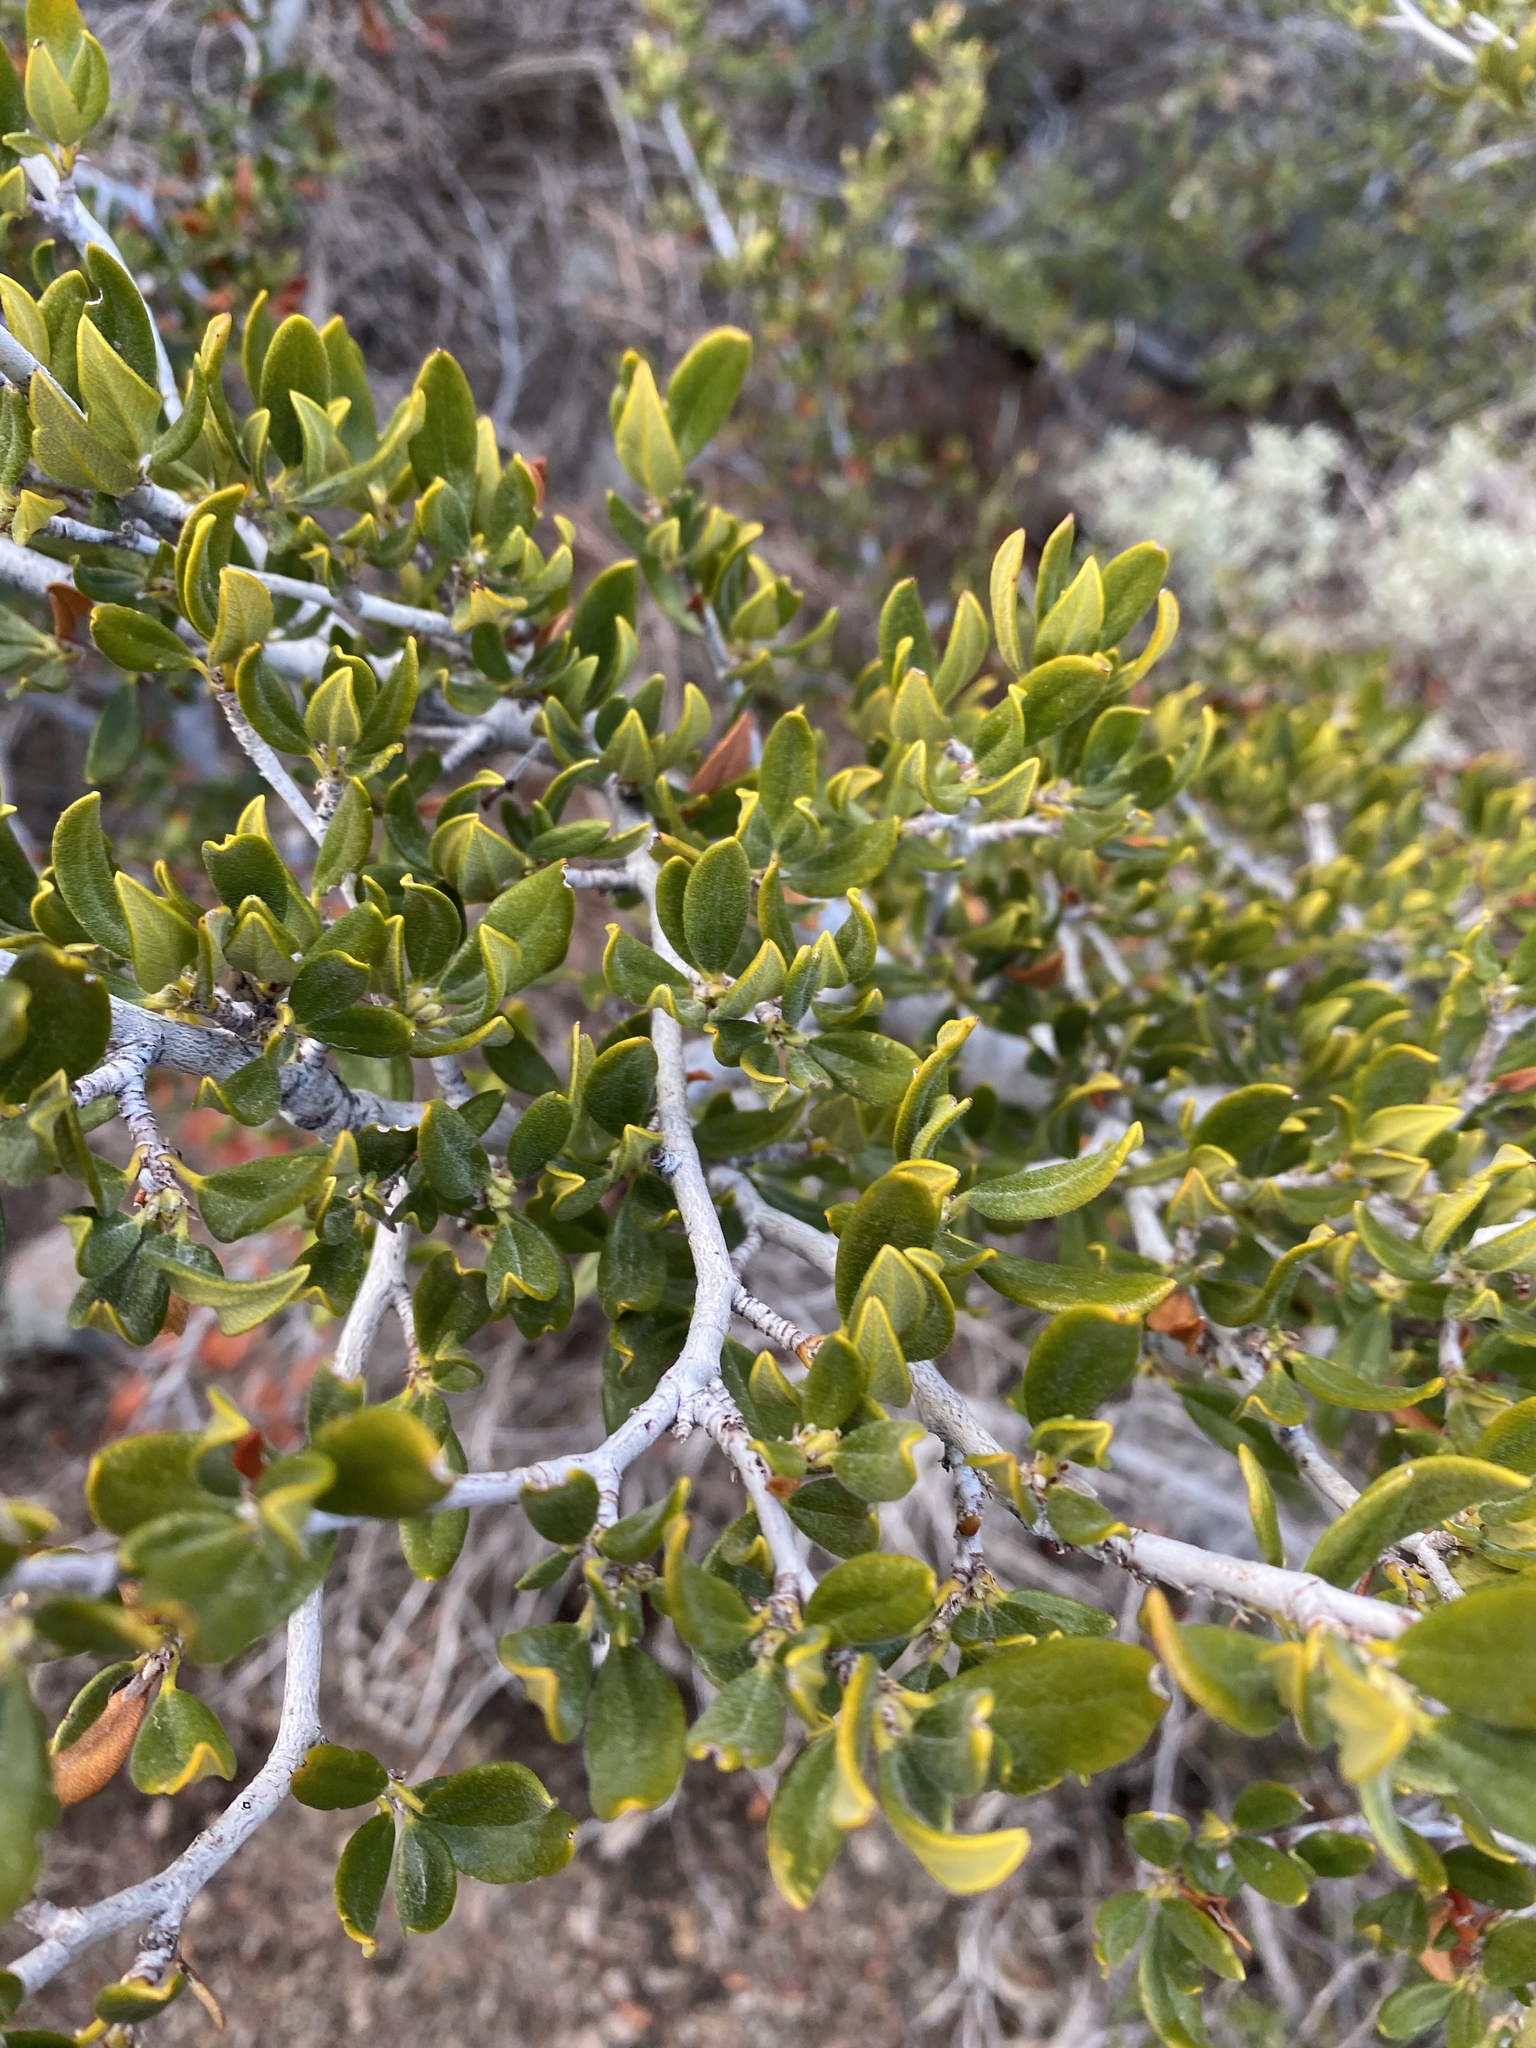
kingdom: Plantae
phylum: Tracheophyta
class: Magnoliopsida
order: Rosales
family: Rosaceae
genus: Cercocarpus
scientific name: Cercocarpus ledifolius
